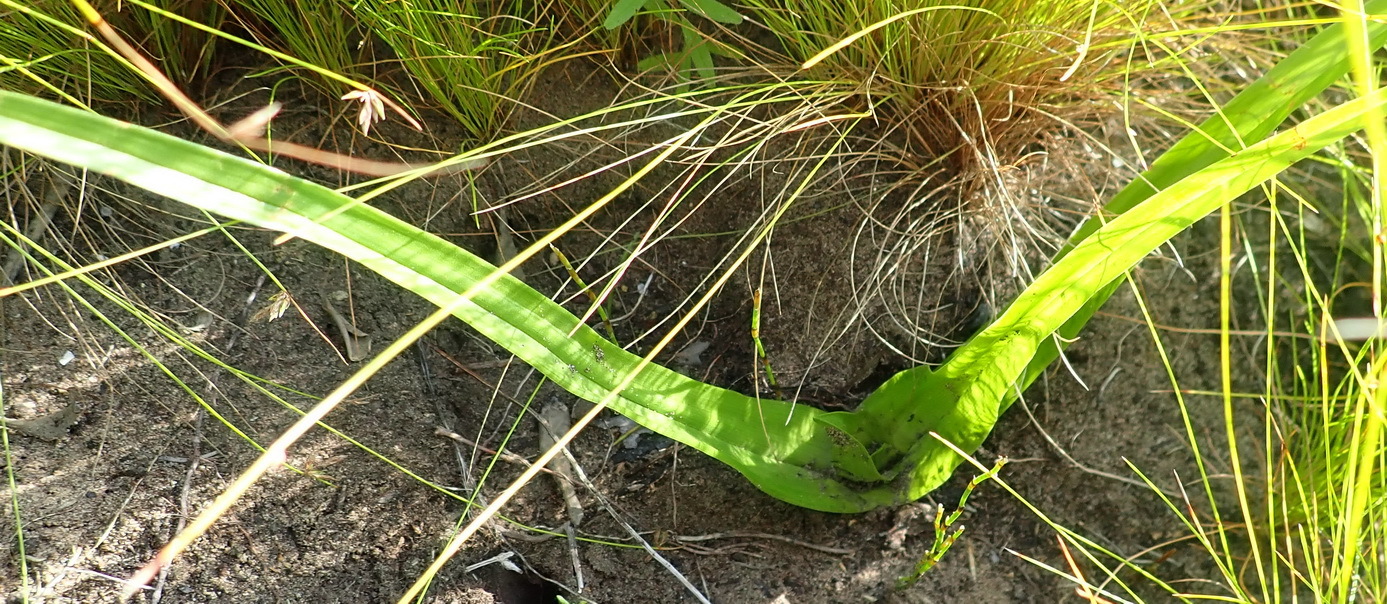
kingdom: Plantae
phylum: Tracheophyta
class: Liliopsida
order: Liliales
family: Colchicaceae
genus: Colchicum
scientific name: Colchicum longipes
